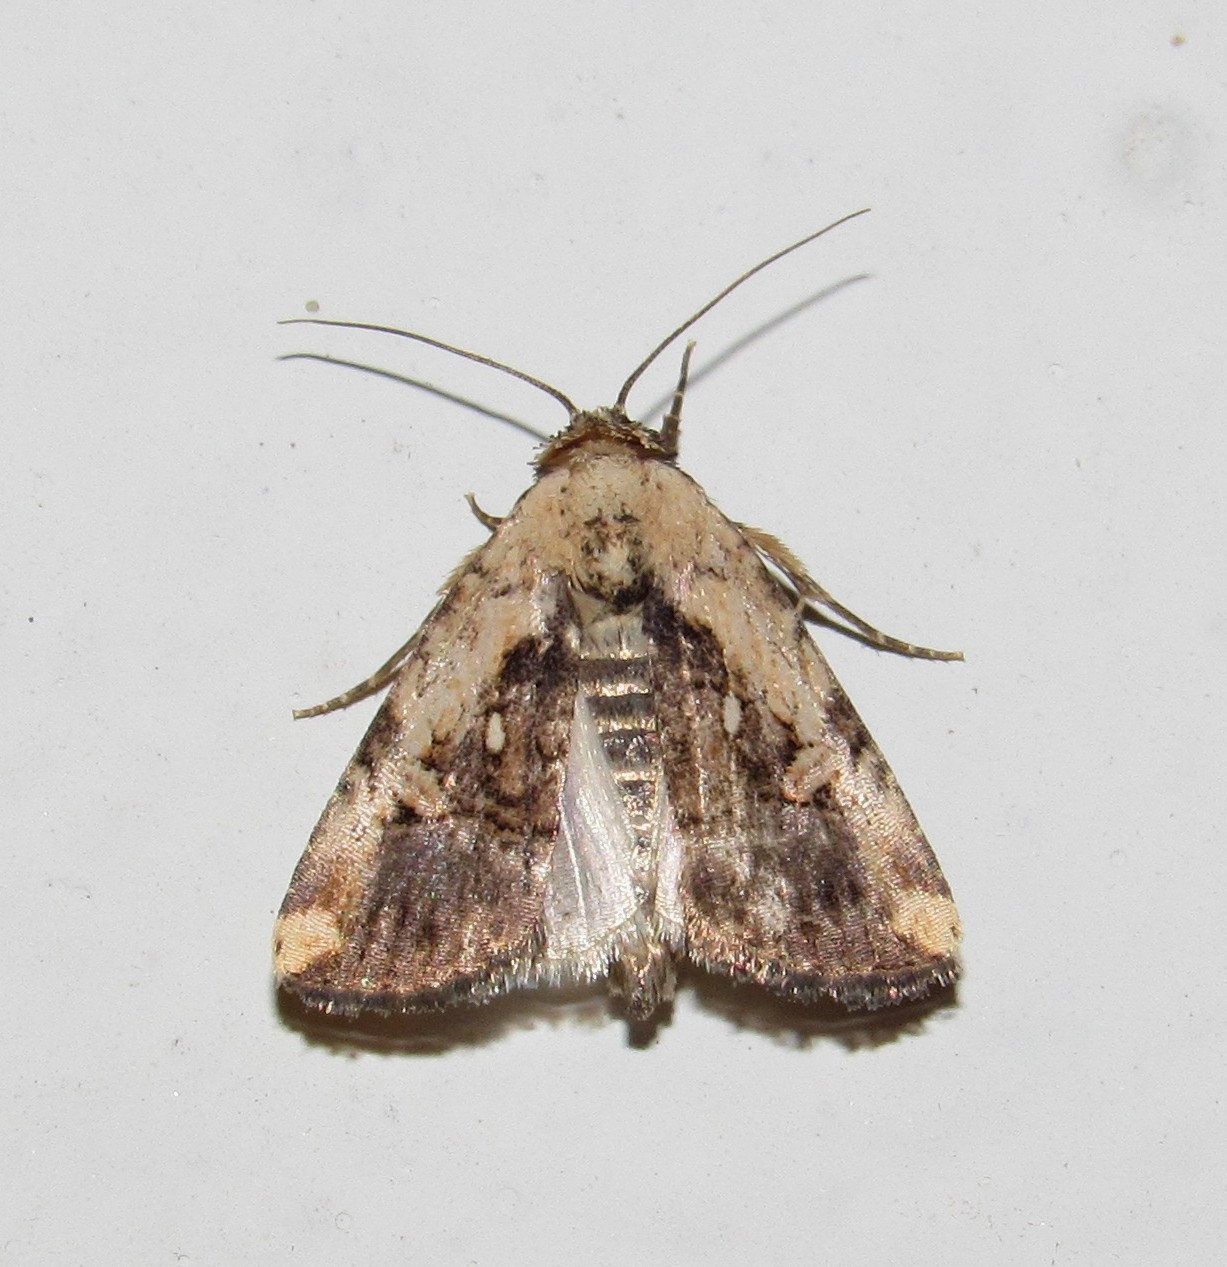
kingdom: Animalia
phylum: Arthropoda
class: Insecta
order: Lepidoptera
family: Noctuidae
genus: Elaphria
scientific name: Elaphria agrotina
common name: Agrotina midget
